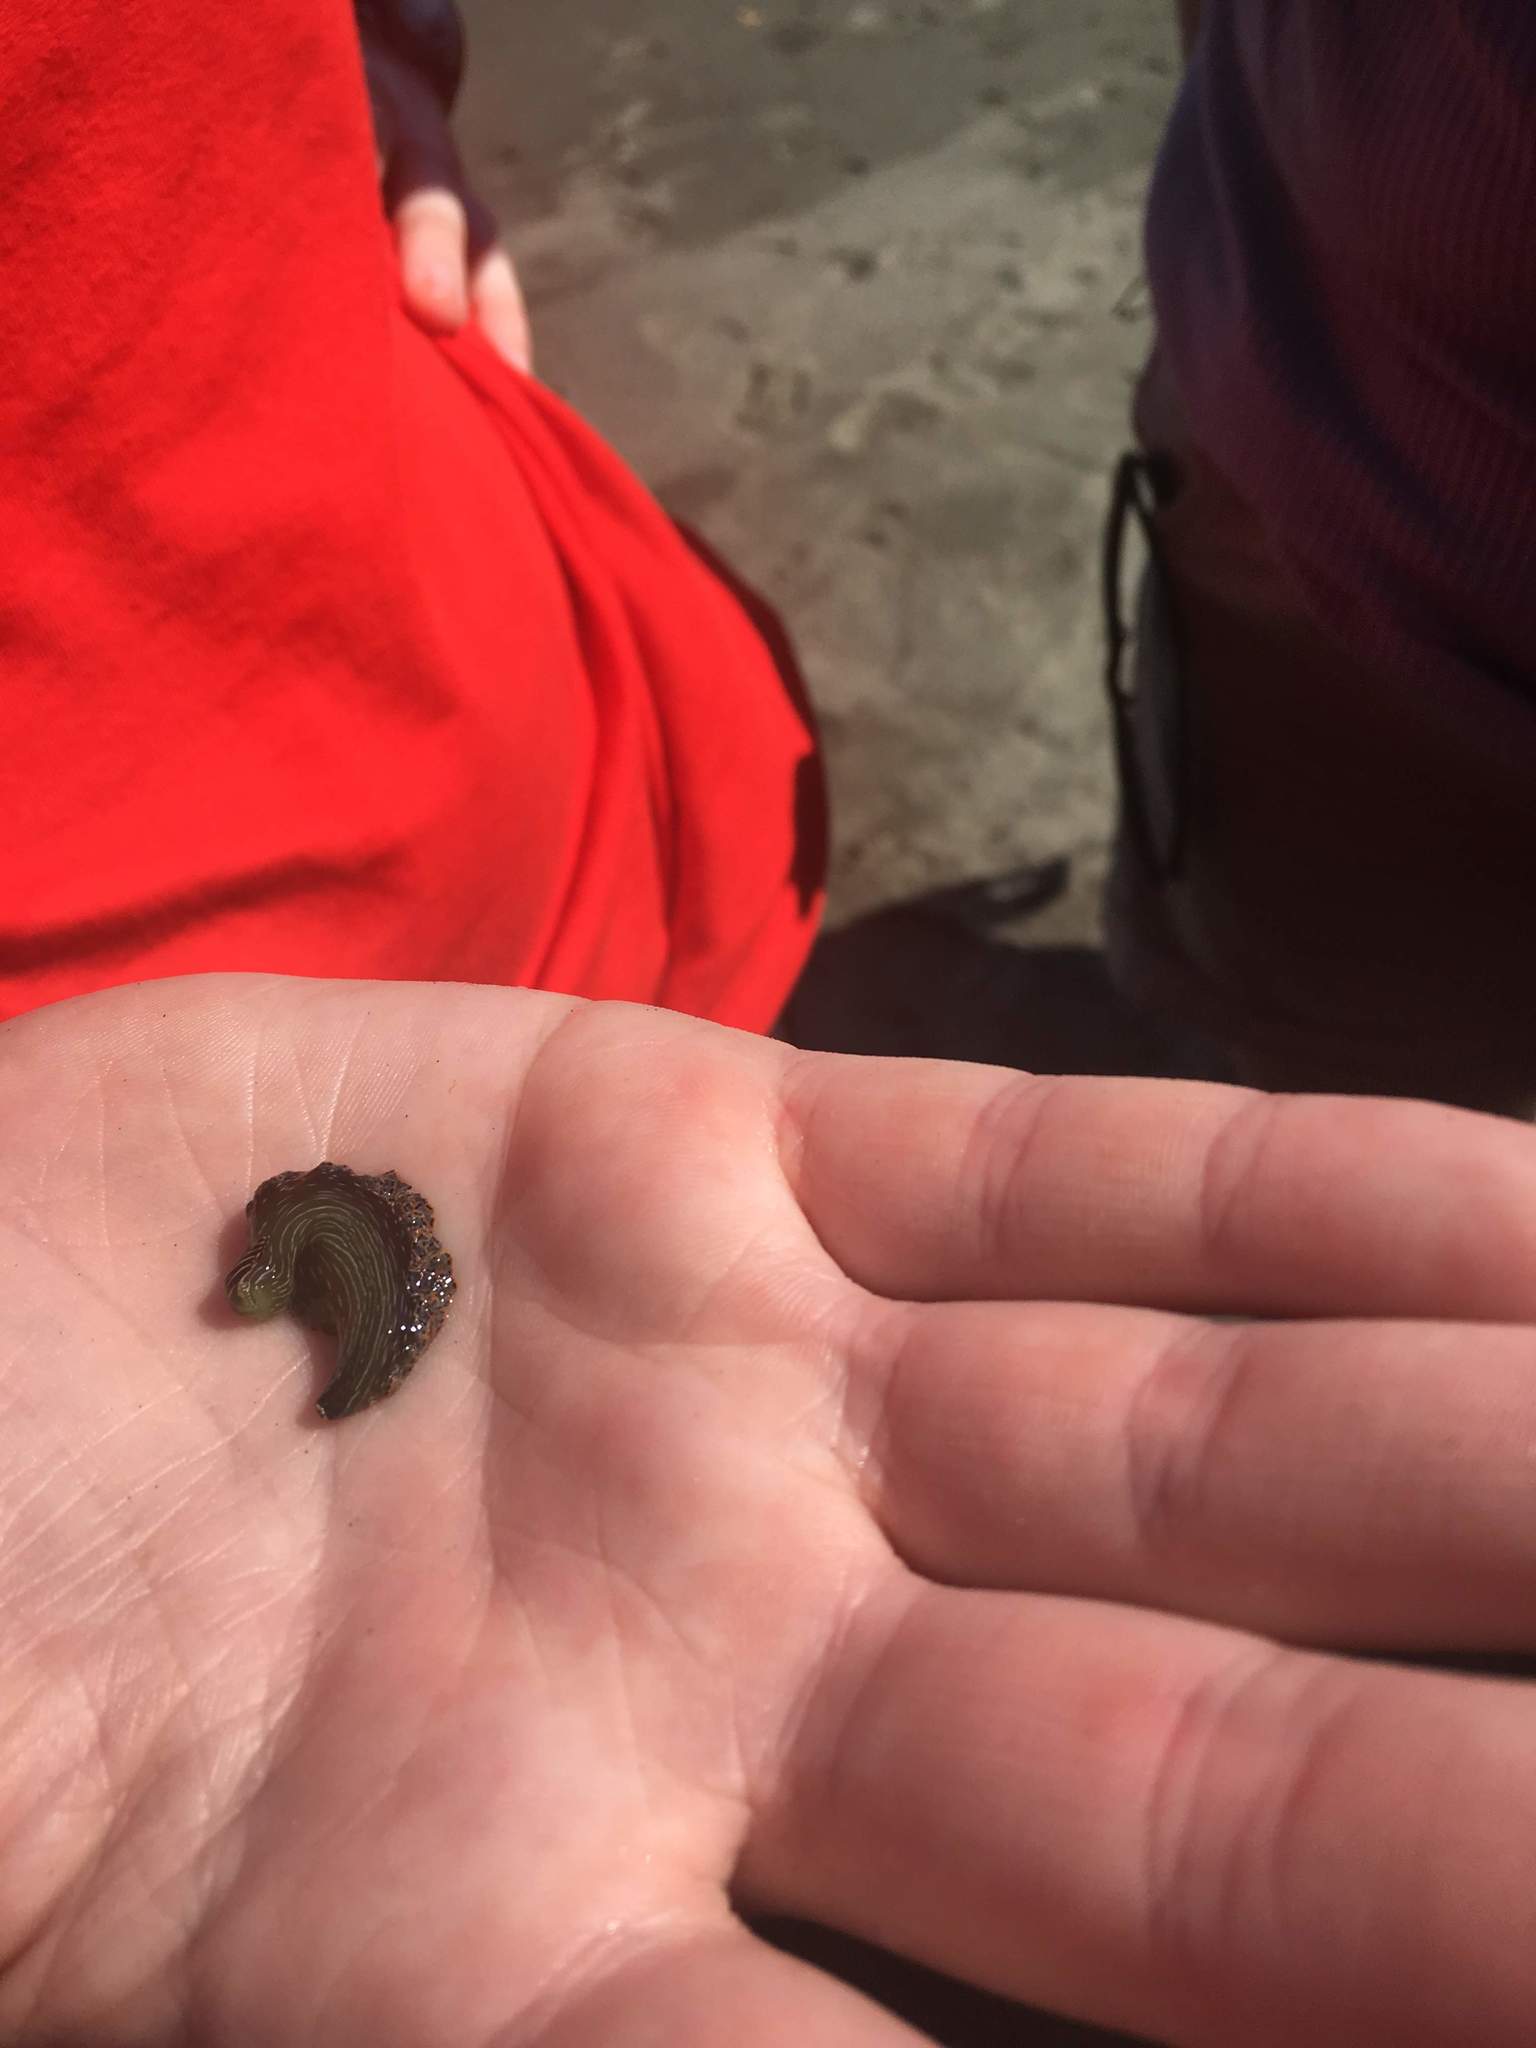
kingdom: Animalia
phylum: Mollusca
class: Gastropoda
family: Plakobranchidae
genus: Elysia
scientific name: Elysia diomedea
